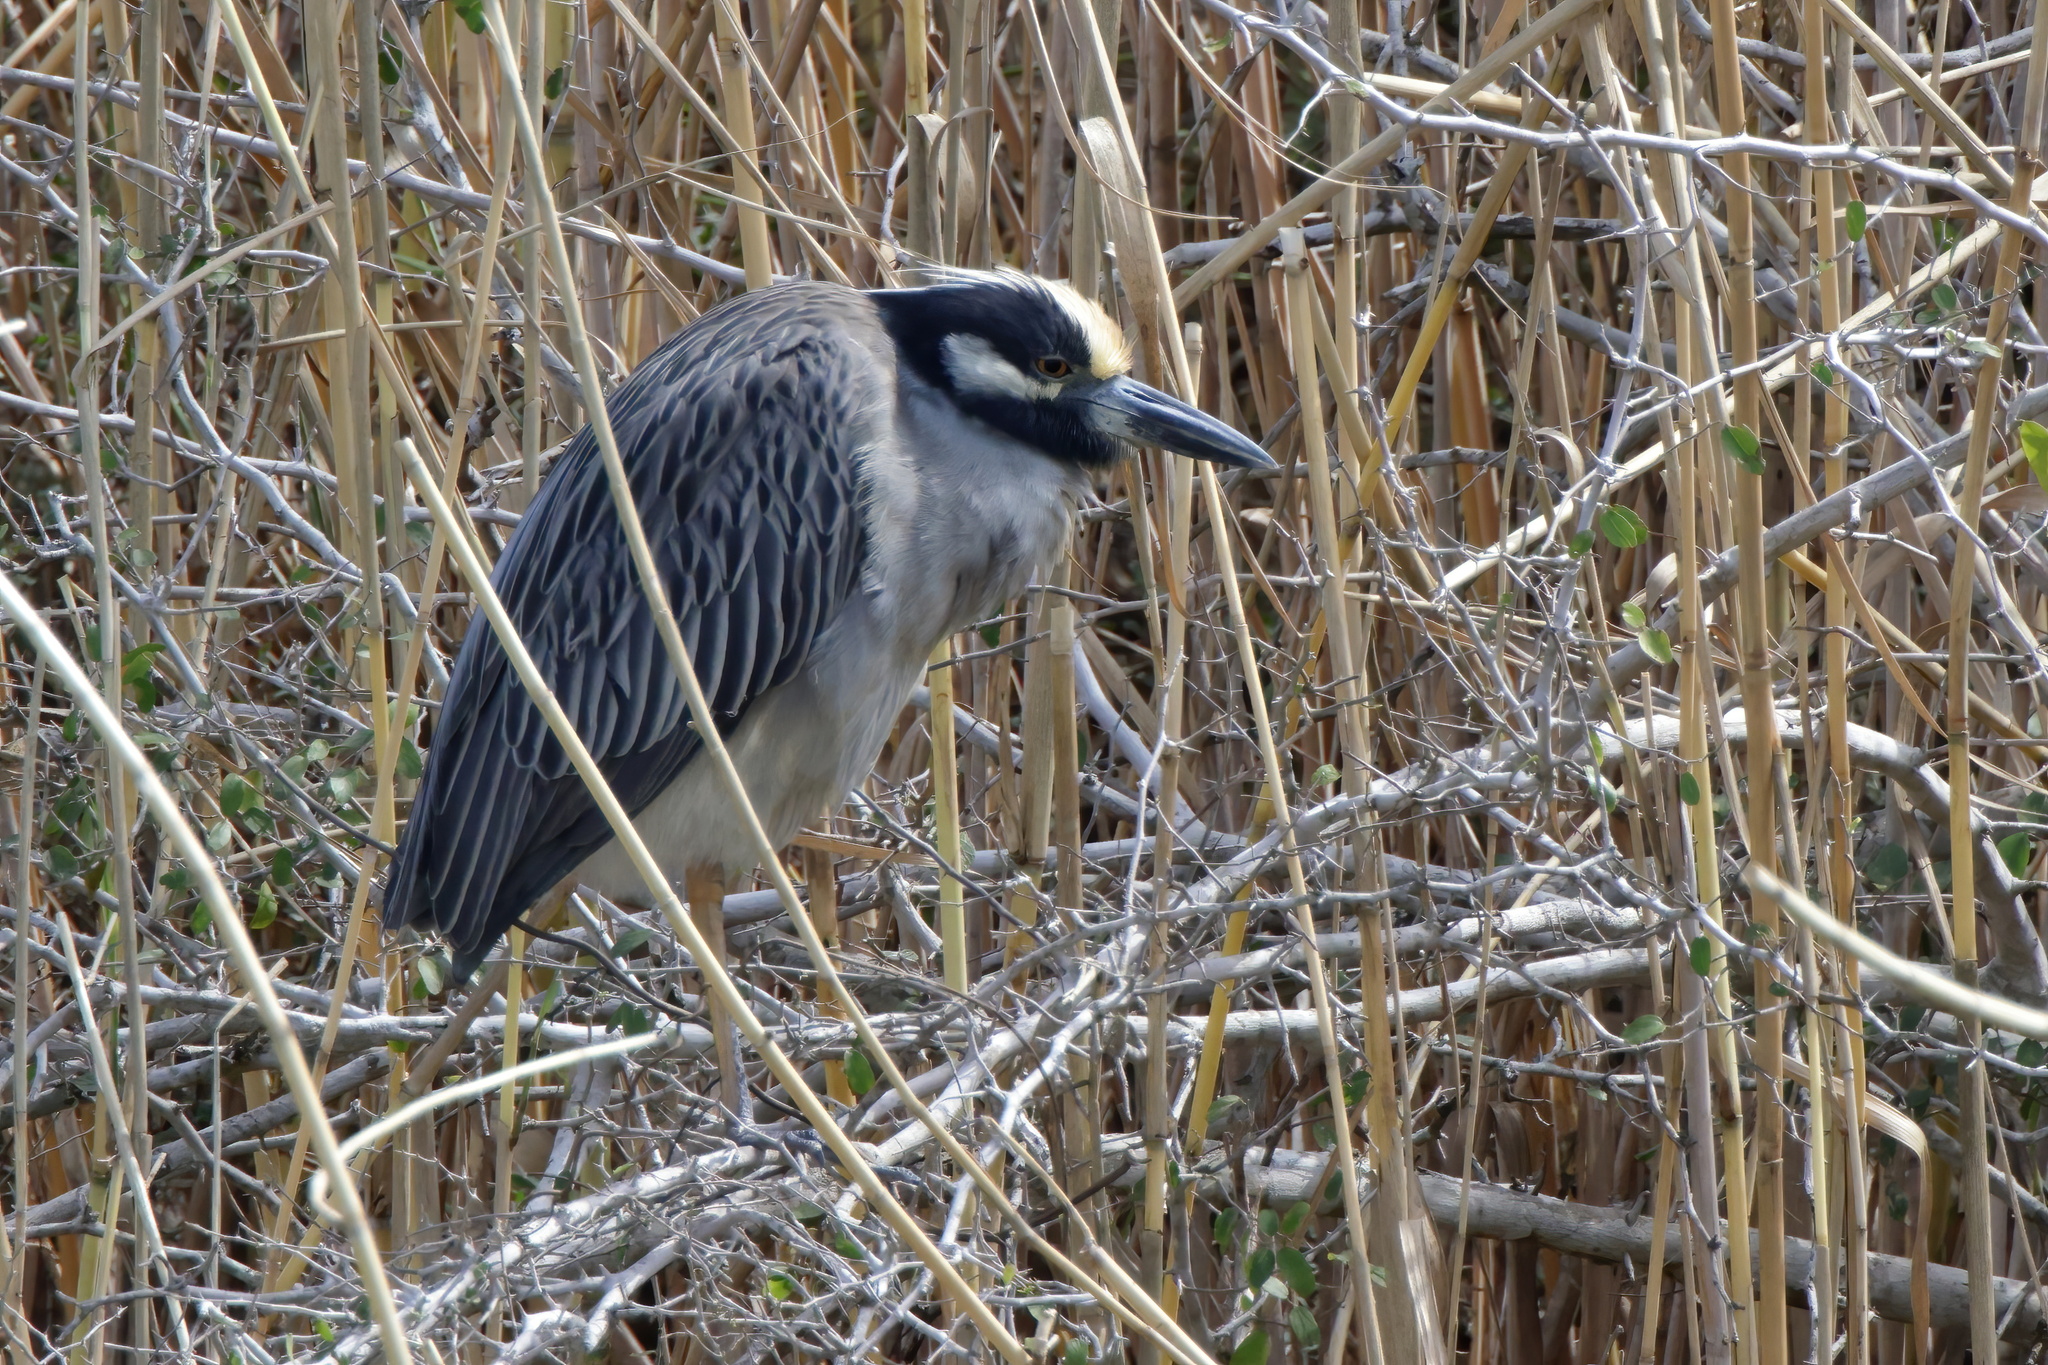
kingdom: Animalia
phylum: Chordata
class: Aves
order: Pelecaniformes
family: Ardeidae
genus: Nyctanassa
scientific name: Nyctanassa violacea
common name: Yellow-crowned night heron
